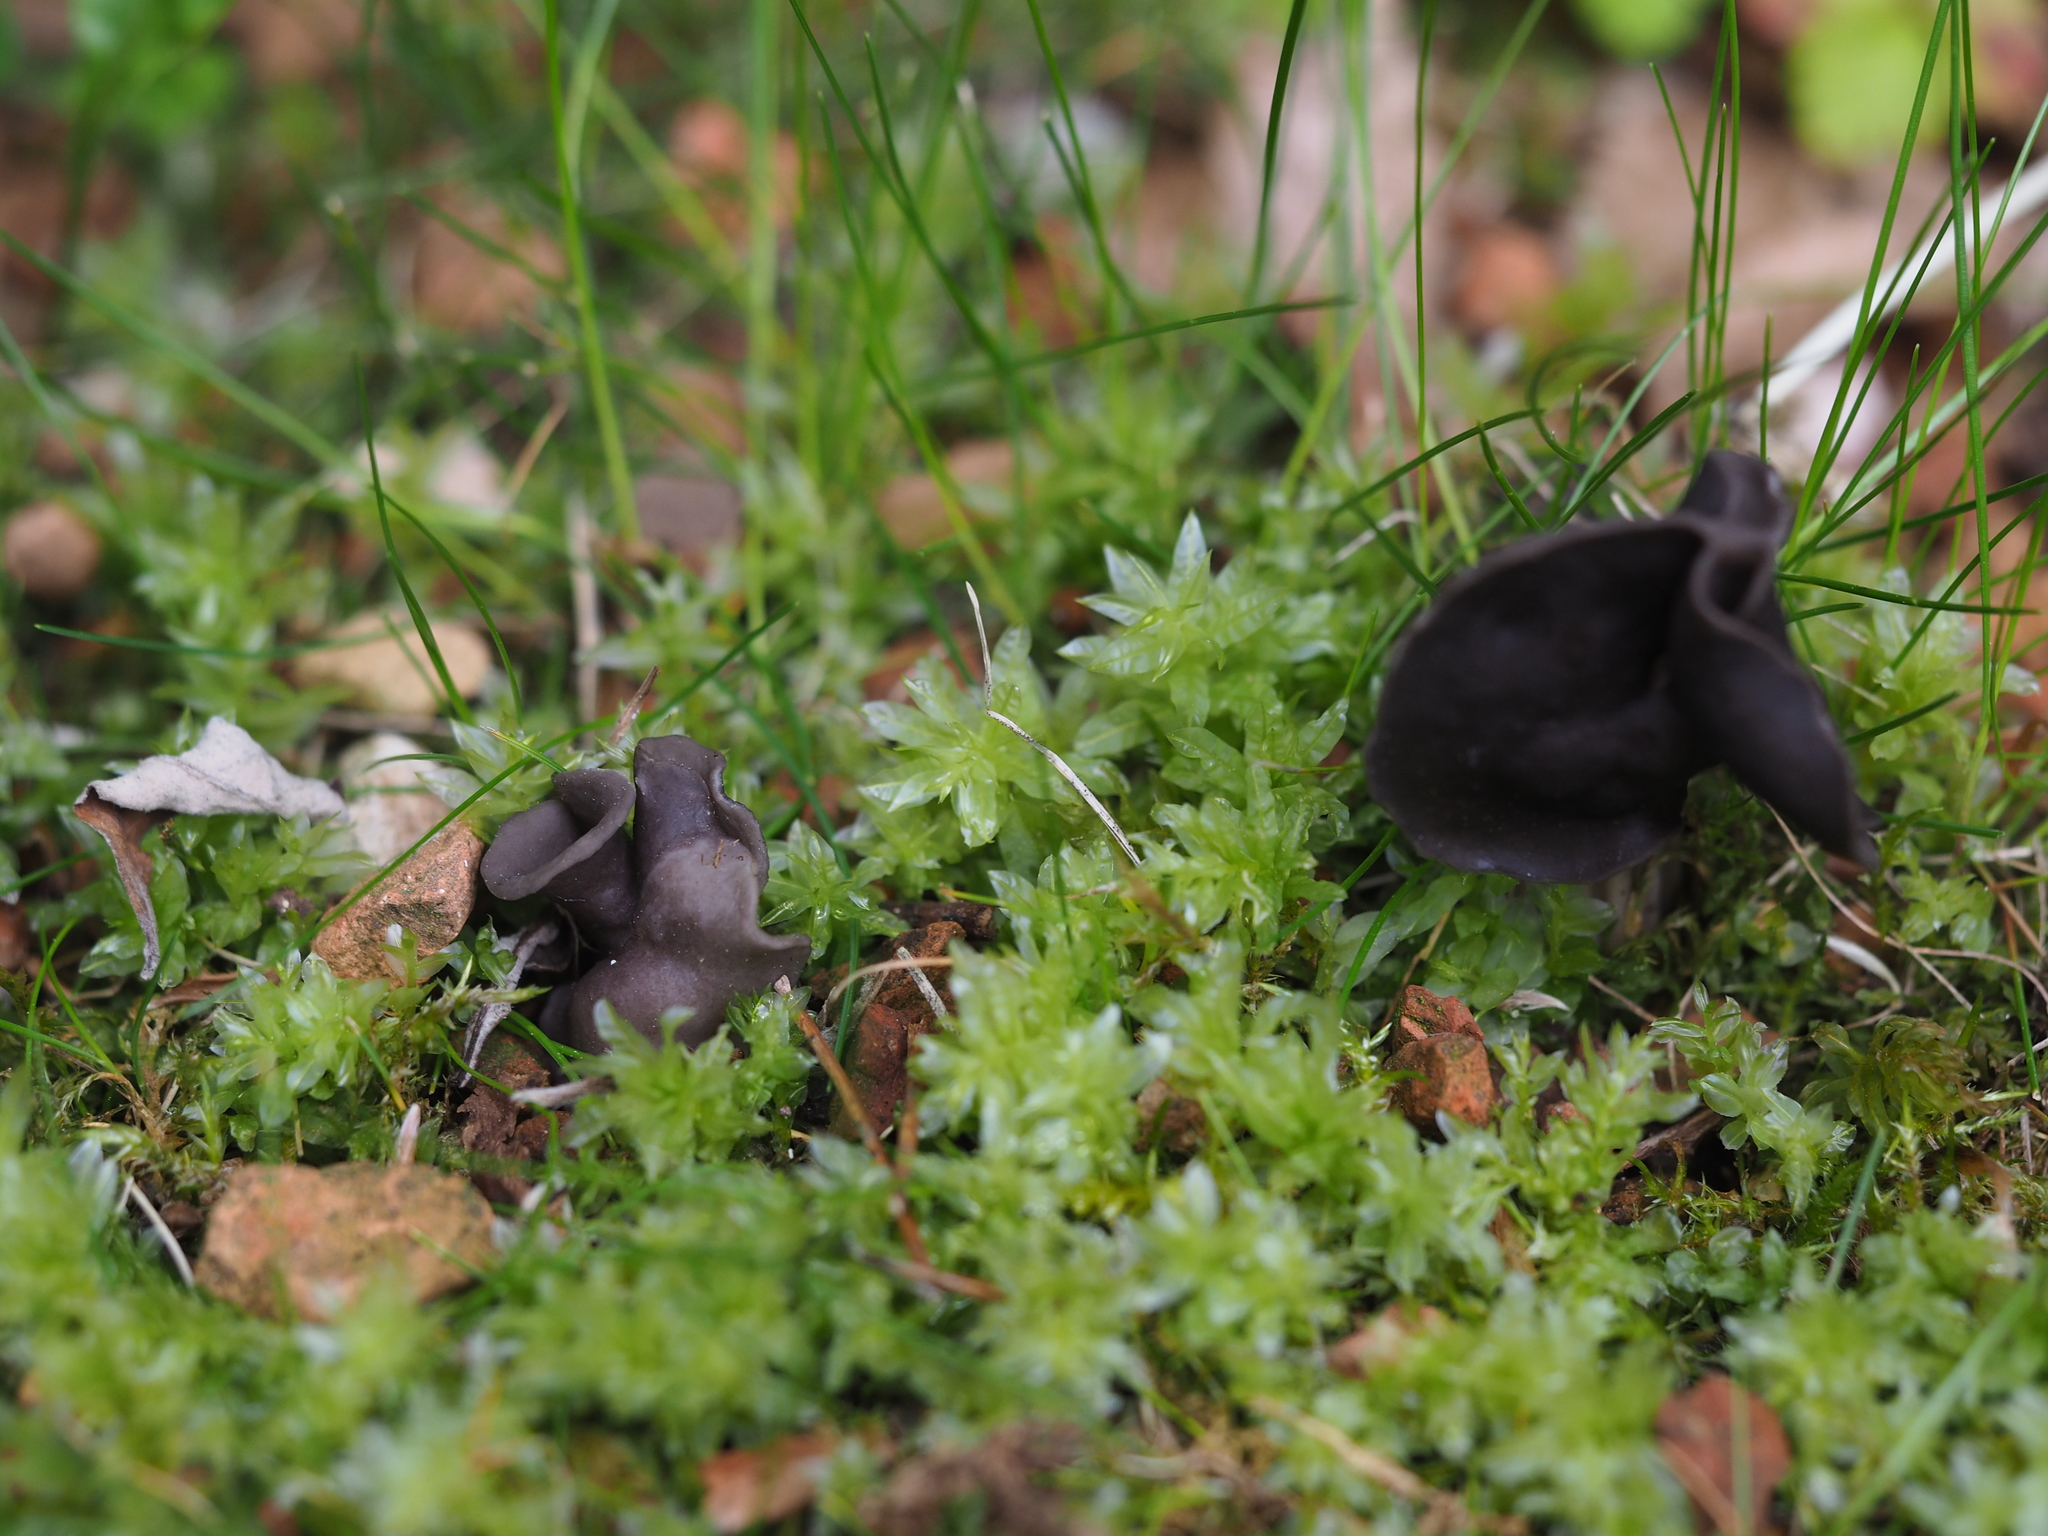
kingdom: Fungi
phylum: Ascomycota
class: Pezizomycetes
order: Pezizales
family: Helvellaceae
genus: Helvella
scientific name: Helvella lacunosa
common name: Elfin saddle
